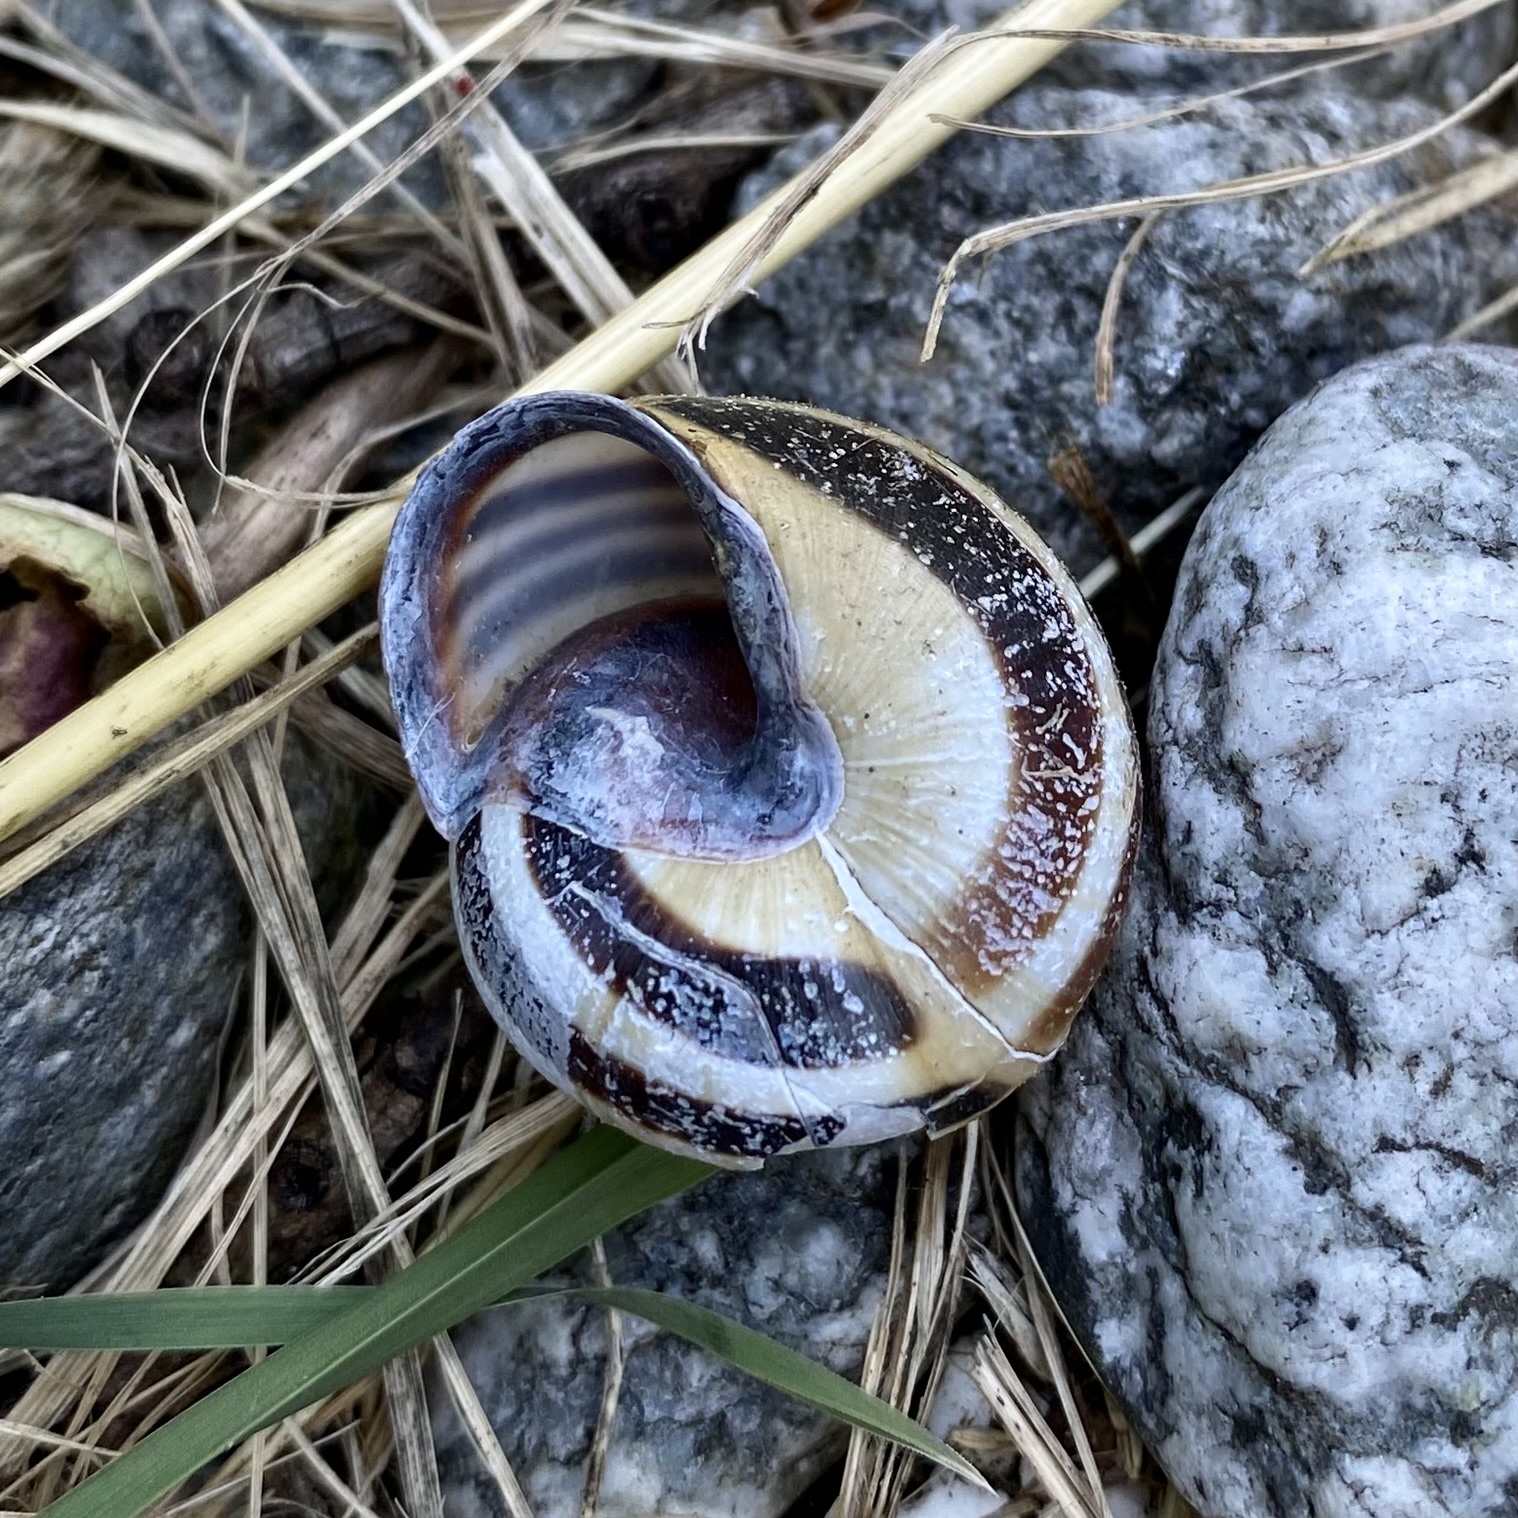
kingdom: Animalia
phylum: Mollusca
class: Gastropoda
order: Stylommatophora
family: Helicidae
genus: Cepaea
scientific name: Cepaea nemoralis
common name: Grovesnail
